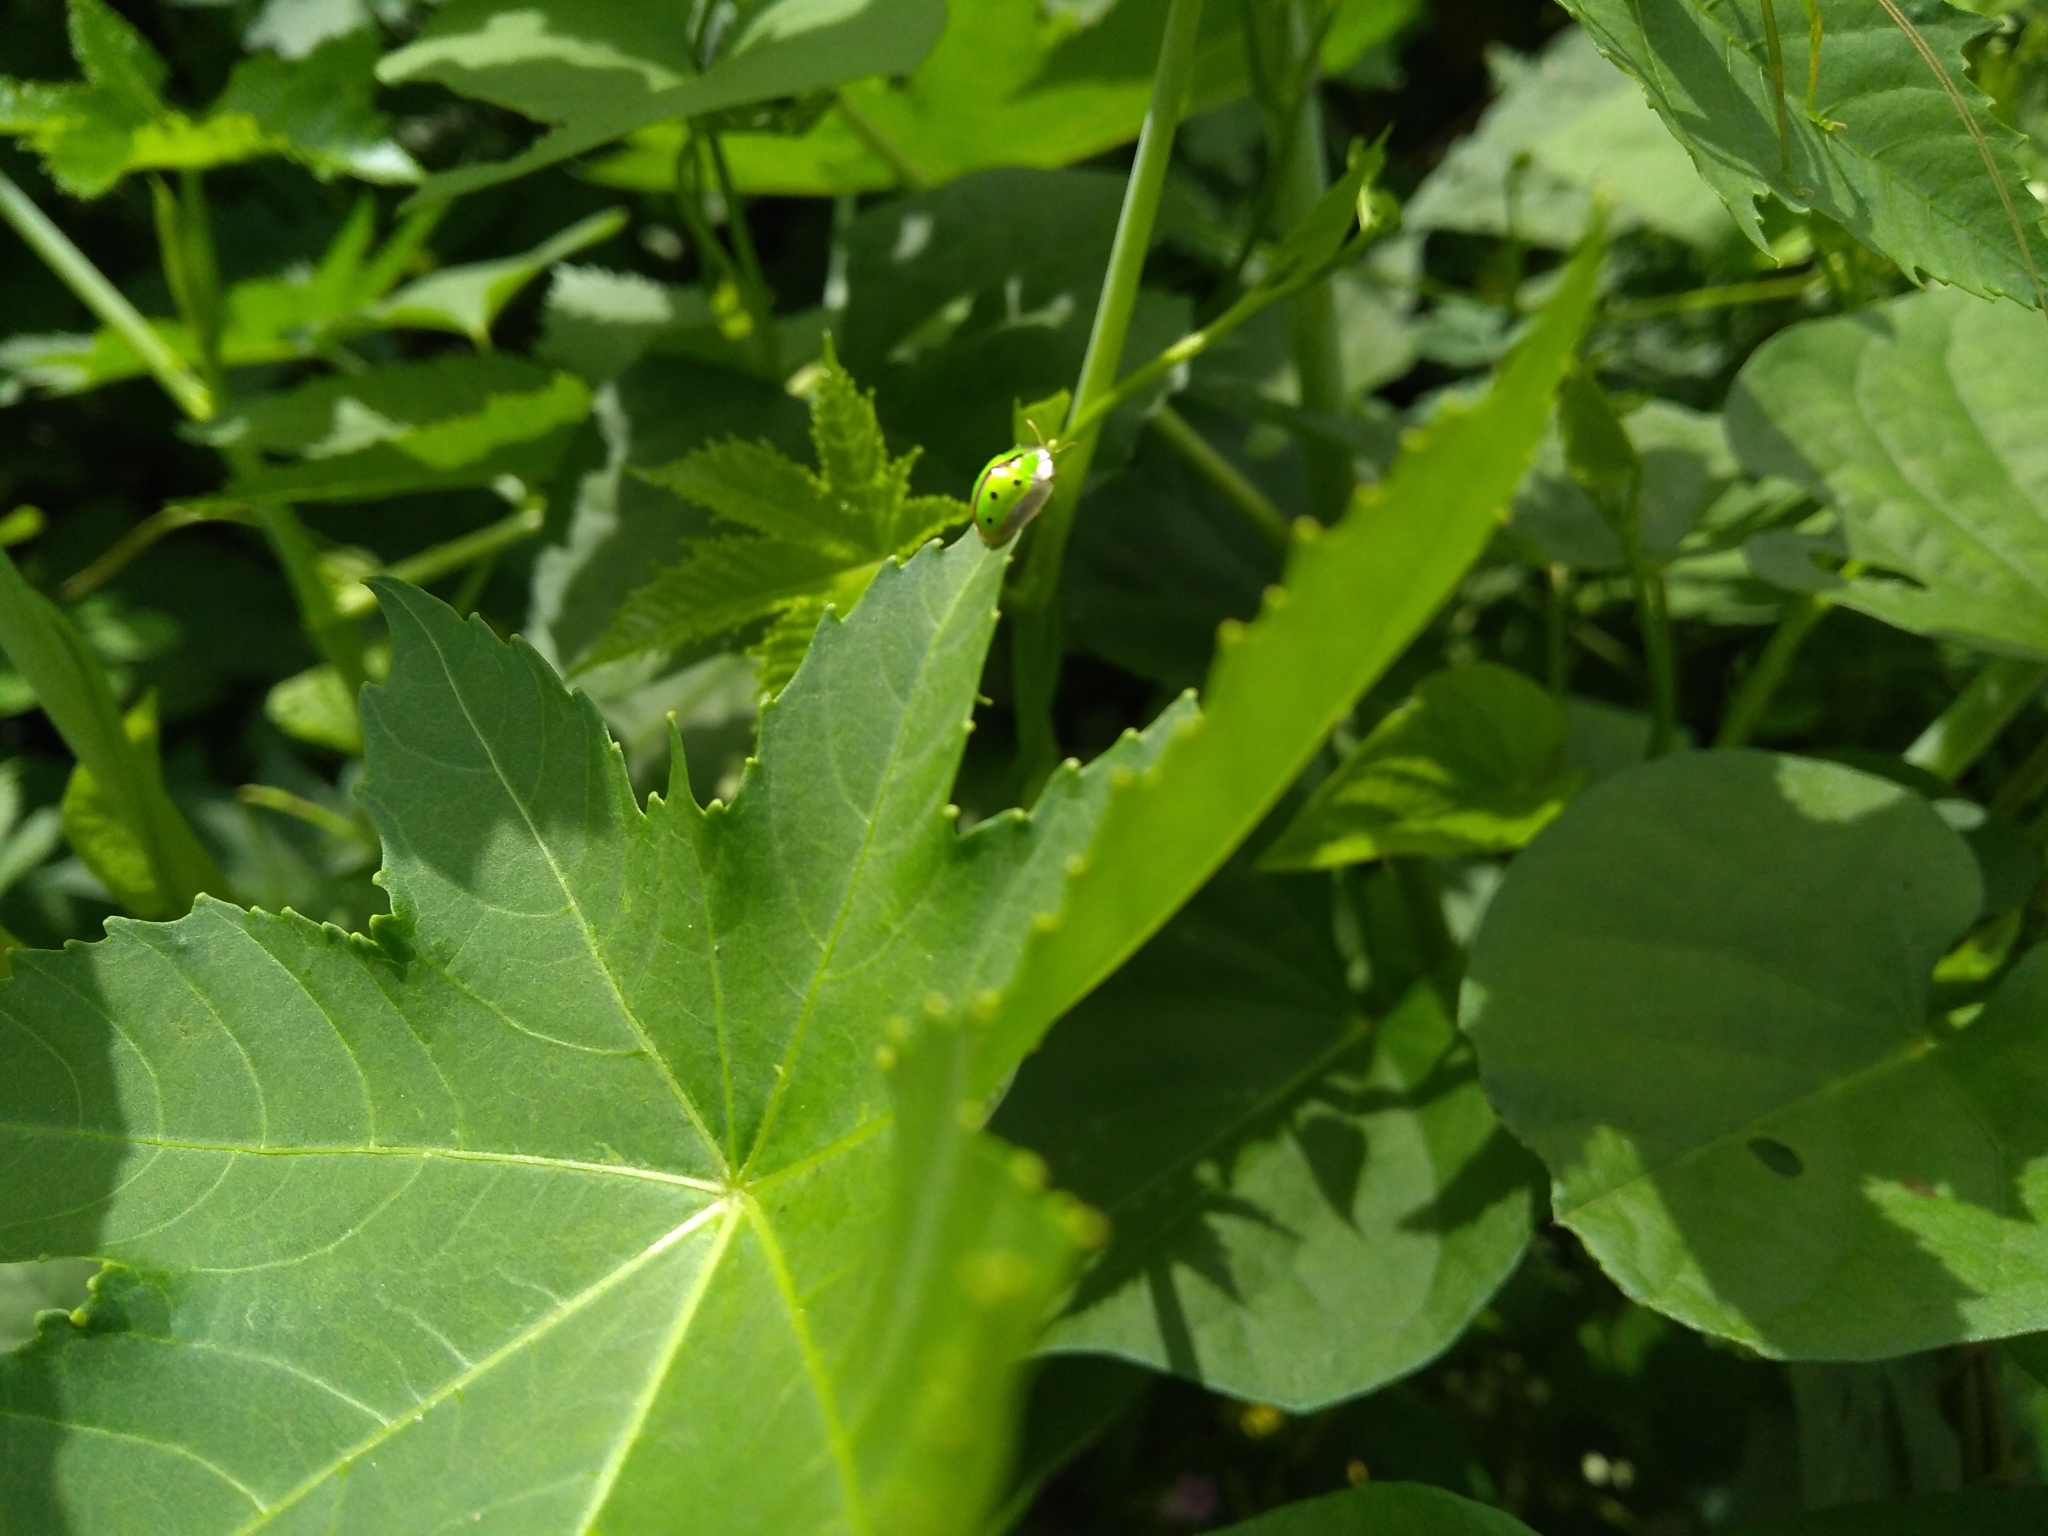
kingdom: Animalia
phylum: Arthropoda
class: Insecta
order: Coleoptera
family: Chrysomelidae
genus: Chiridopsis
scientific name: Chiridopsis bipunctata
